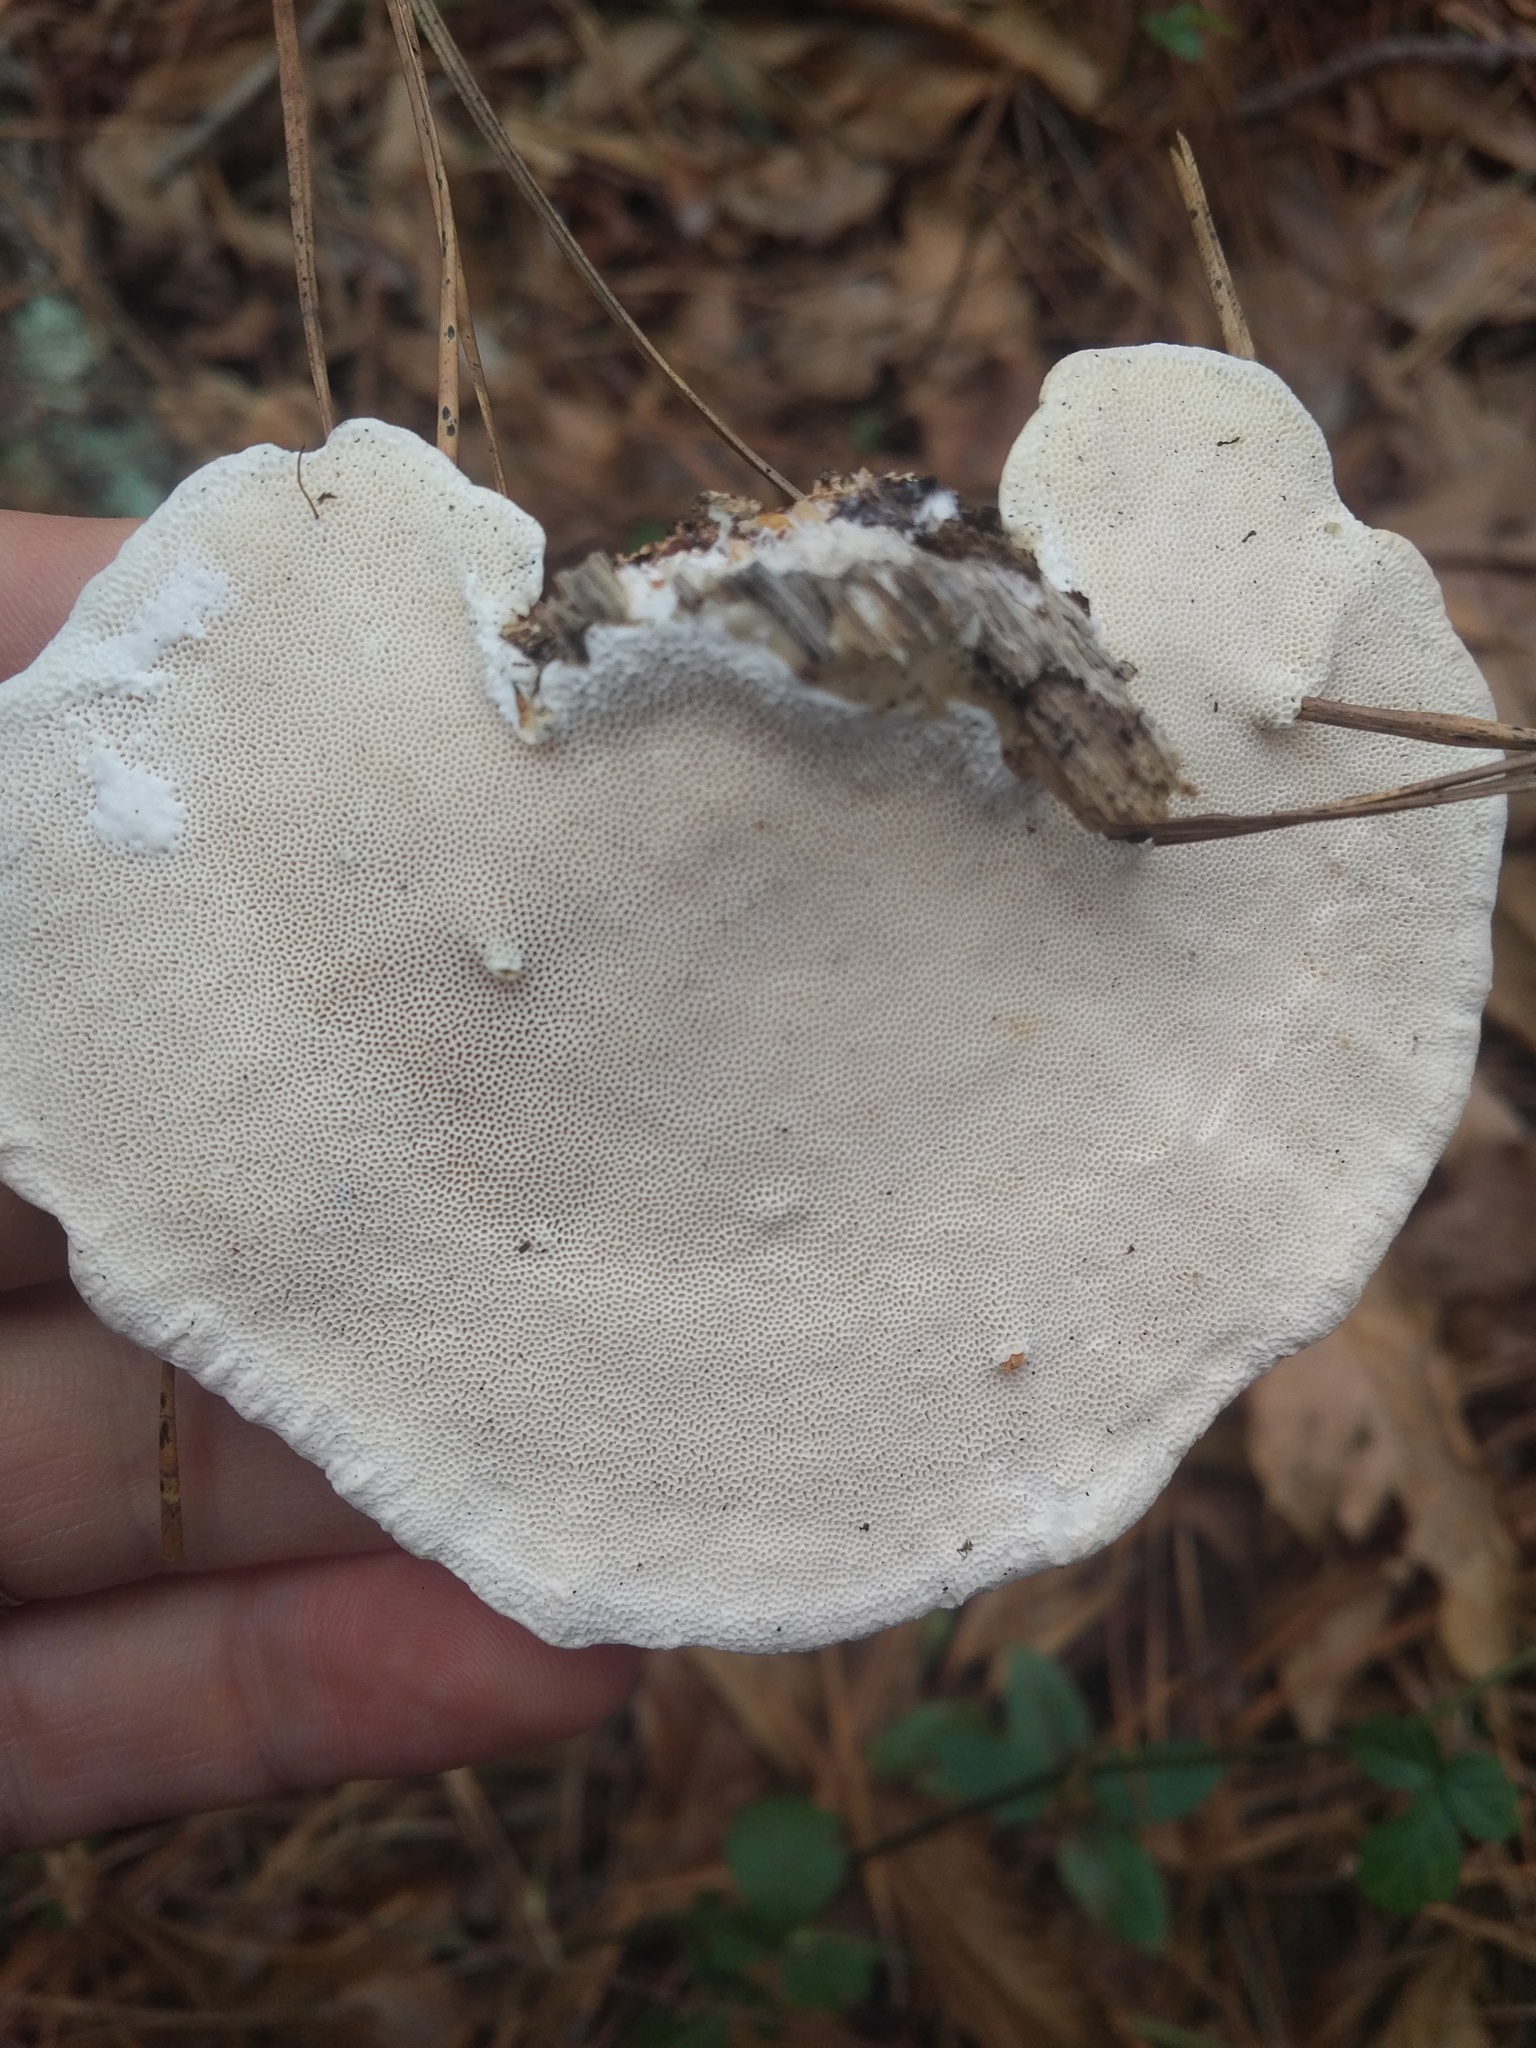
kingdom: Fungi
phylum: Basidiomycota
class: Agaricomycetes
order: Polyporales
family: Polyporaceae
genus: Trametes
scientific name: Trametes lactinea
